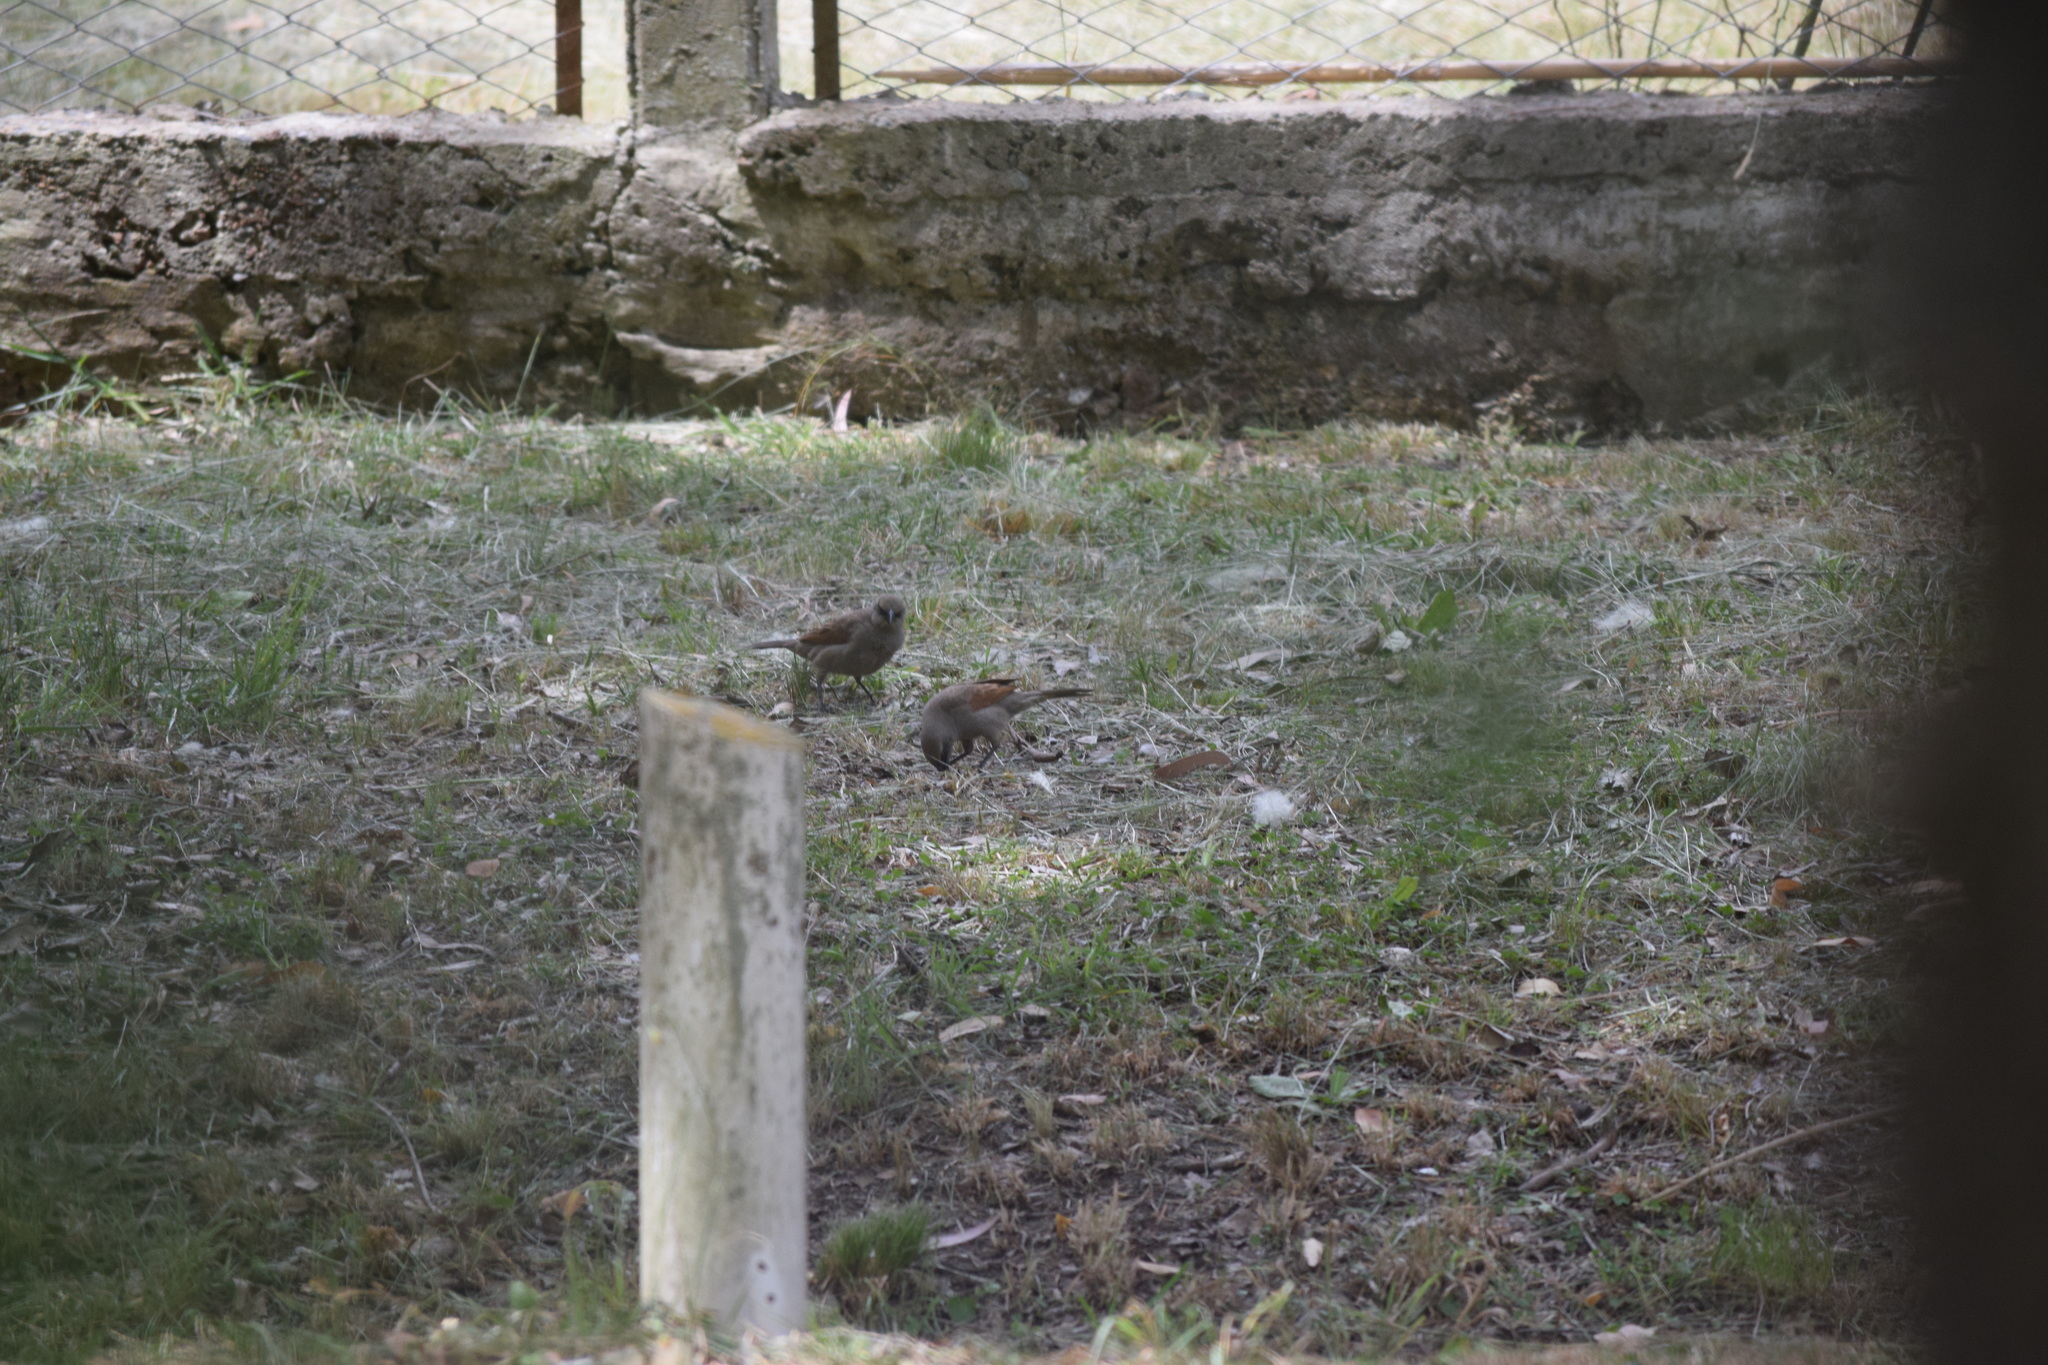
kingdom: Animalia
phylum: Chordata
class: Aves
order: Passeriformes
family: Icteridae
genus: Agelaioides
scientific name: Agelaioides badius
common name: Baywing
